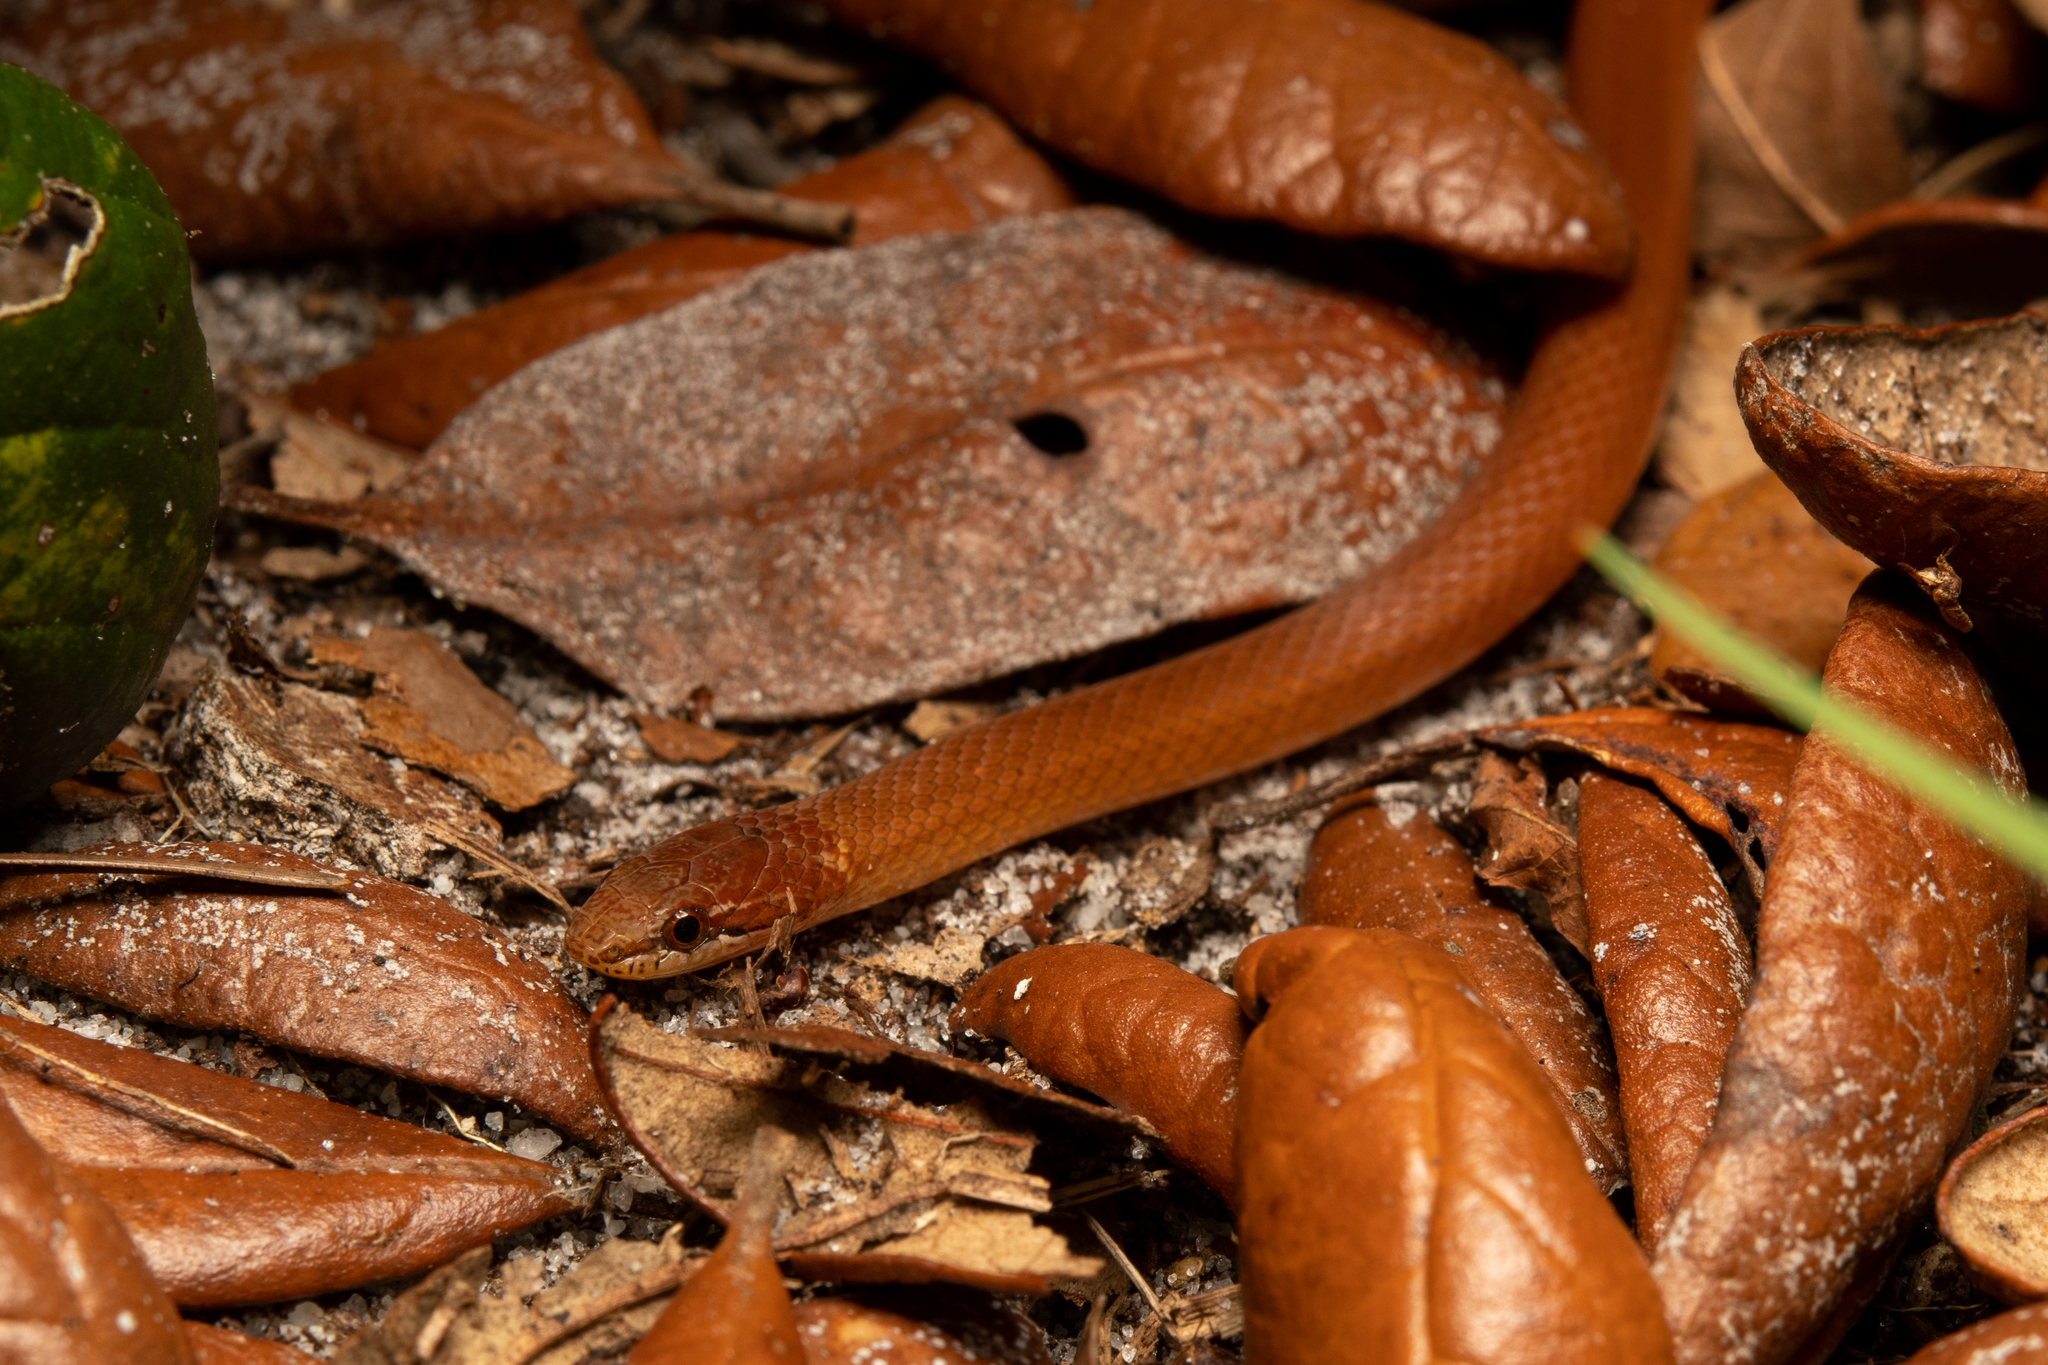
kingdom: Animalia
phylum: Chordata
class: Squamata
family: Colubridae
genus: Rhadinaea
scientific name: Rhadinaea flavilata
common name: Pine woods littersnake
